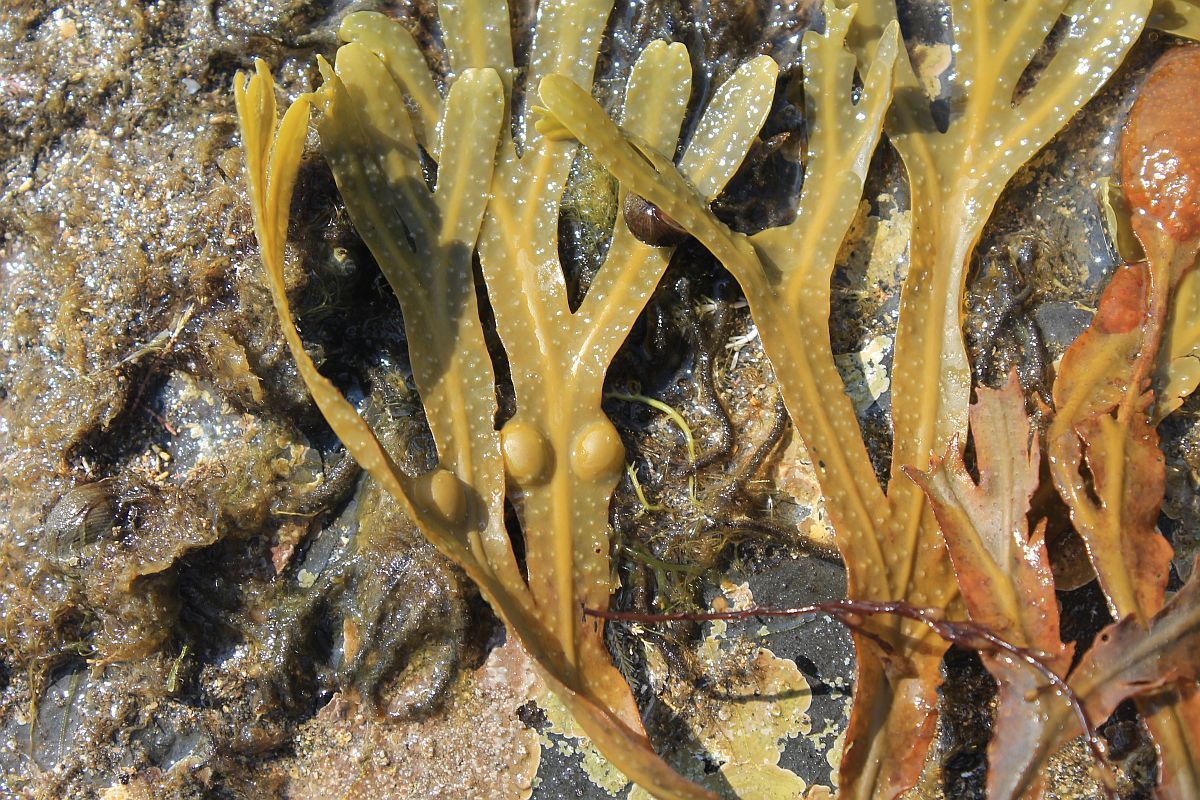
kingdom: Chromista
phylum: Ochrophyta
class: Phaeophyceae
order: Fucales
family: Fucaceae
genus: Fucus
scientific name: Fucus vesiculosus
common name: Bladder wrack
